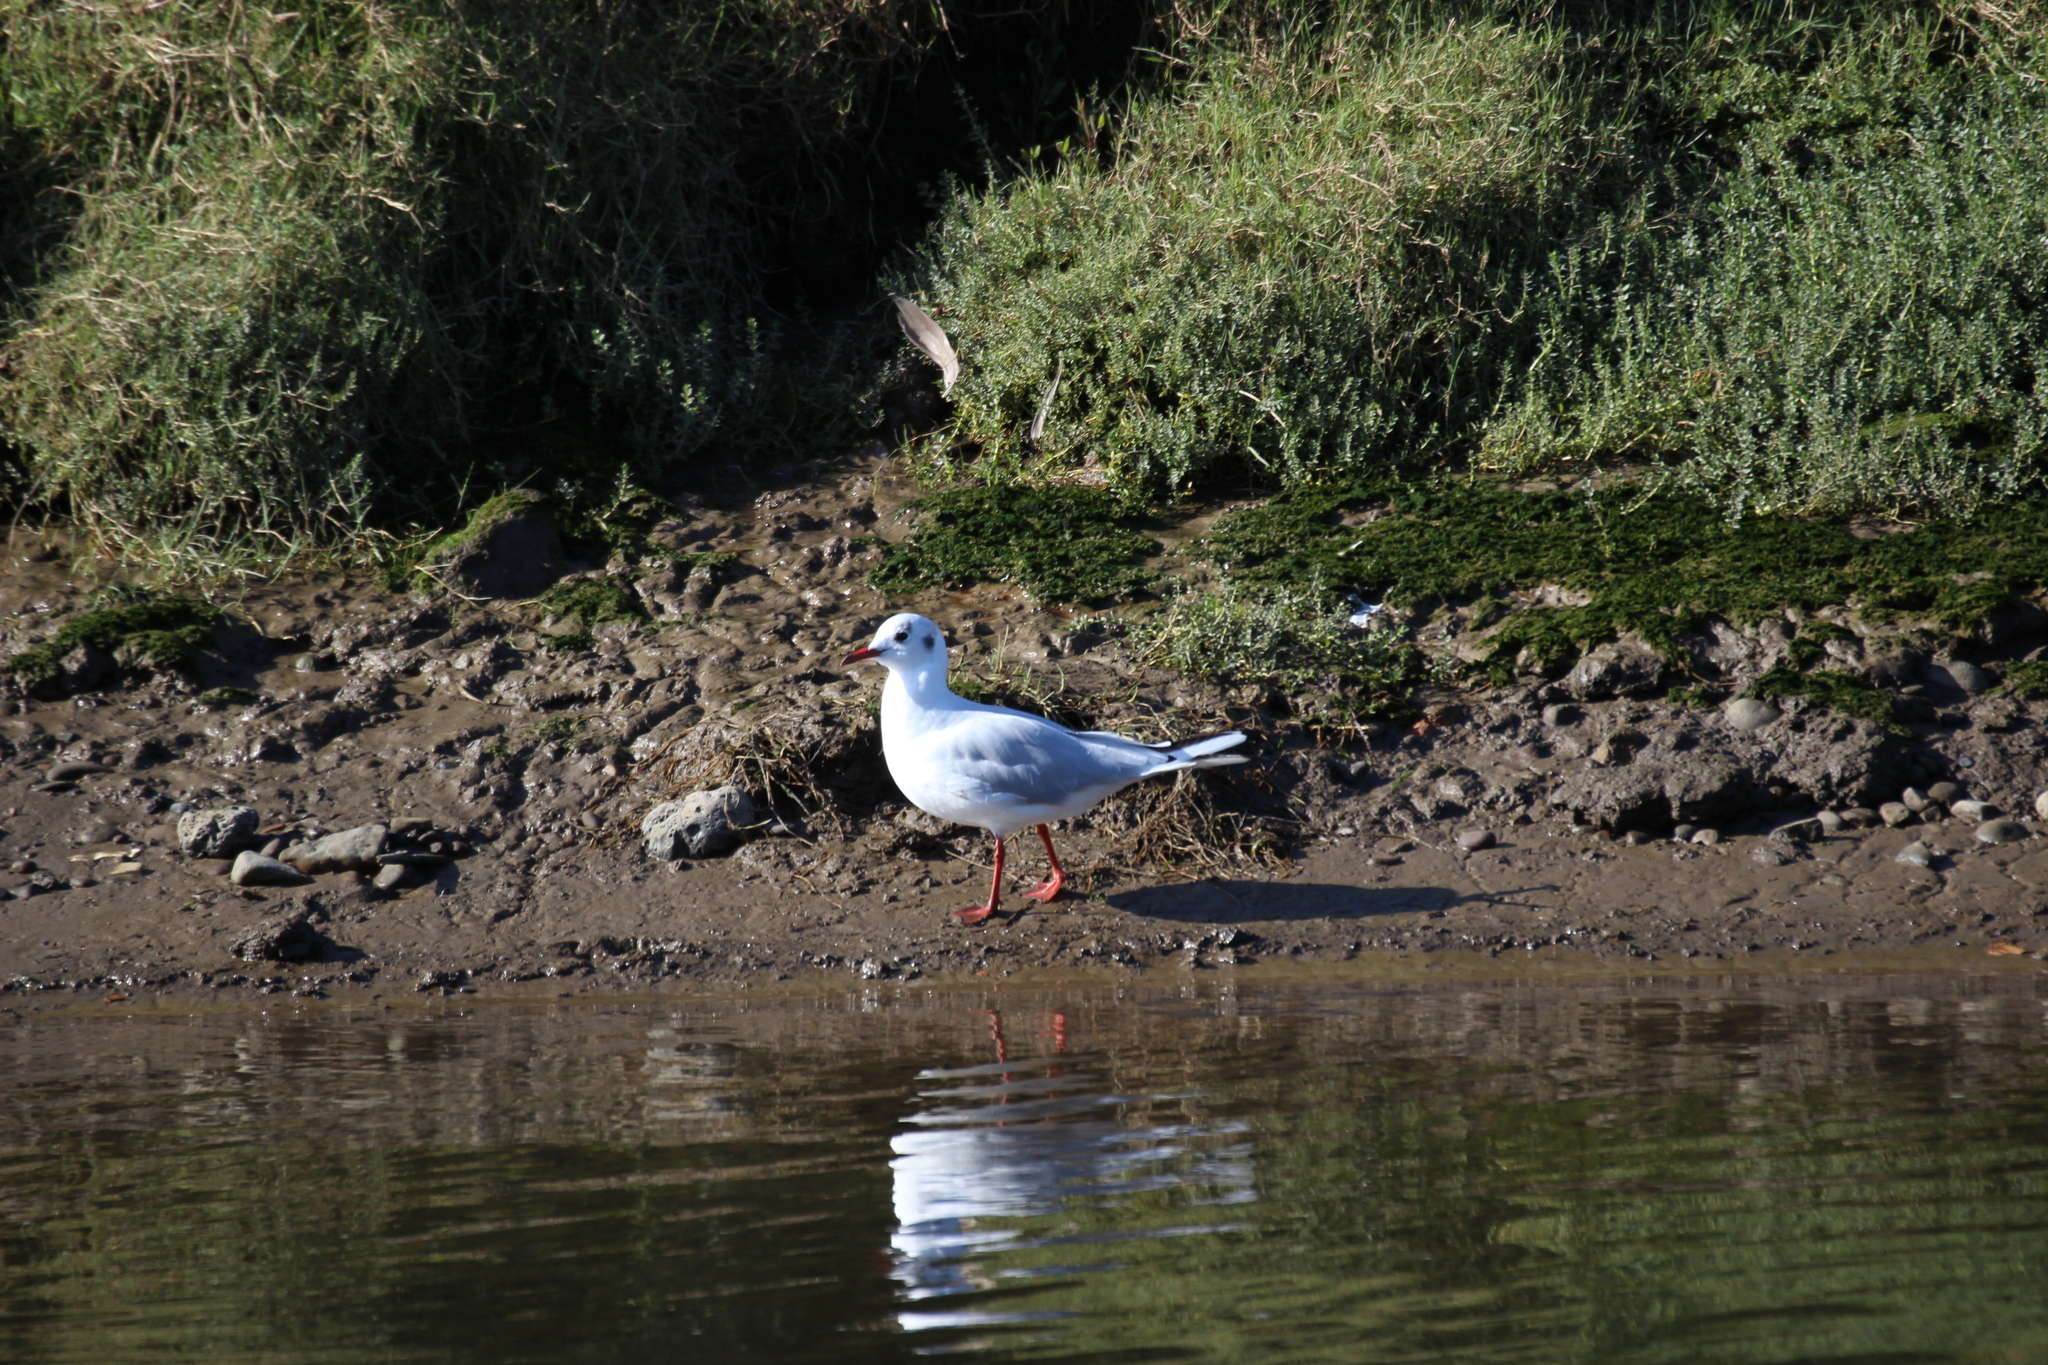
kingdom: Animalia
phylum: Chordata
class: Aves
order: Charadriiformes
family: Laridae
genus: Chroicocephalus
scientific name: Chroicocephalus ridibundus
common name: Black-headed gull
